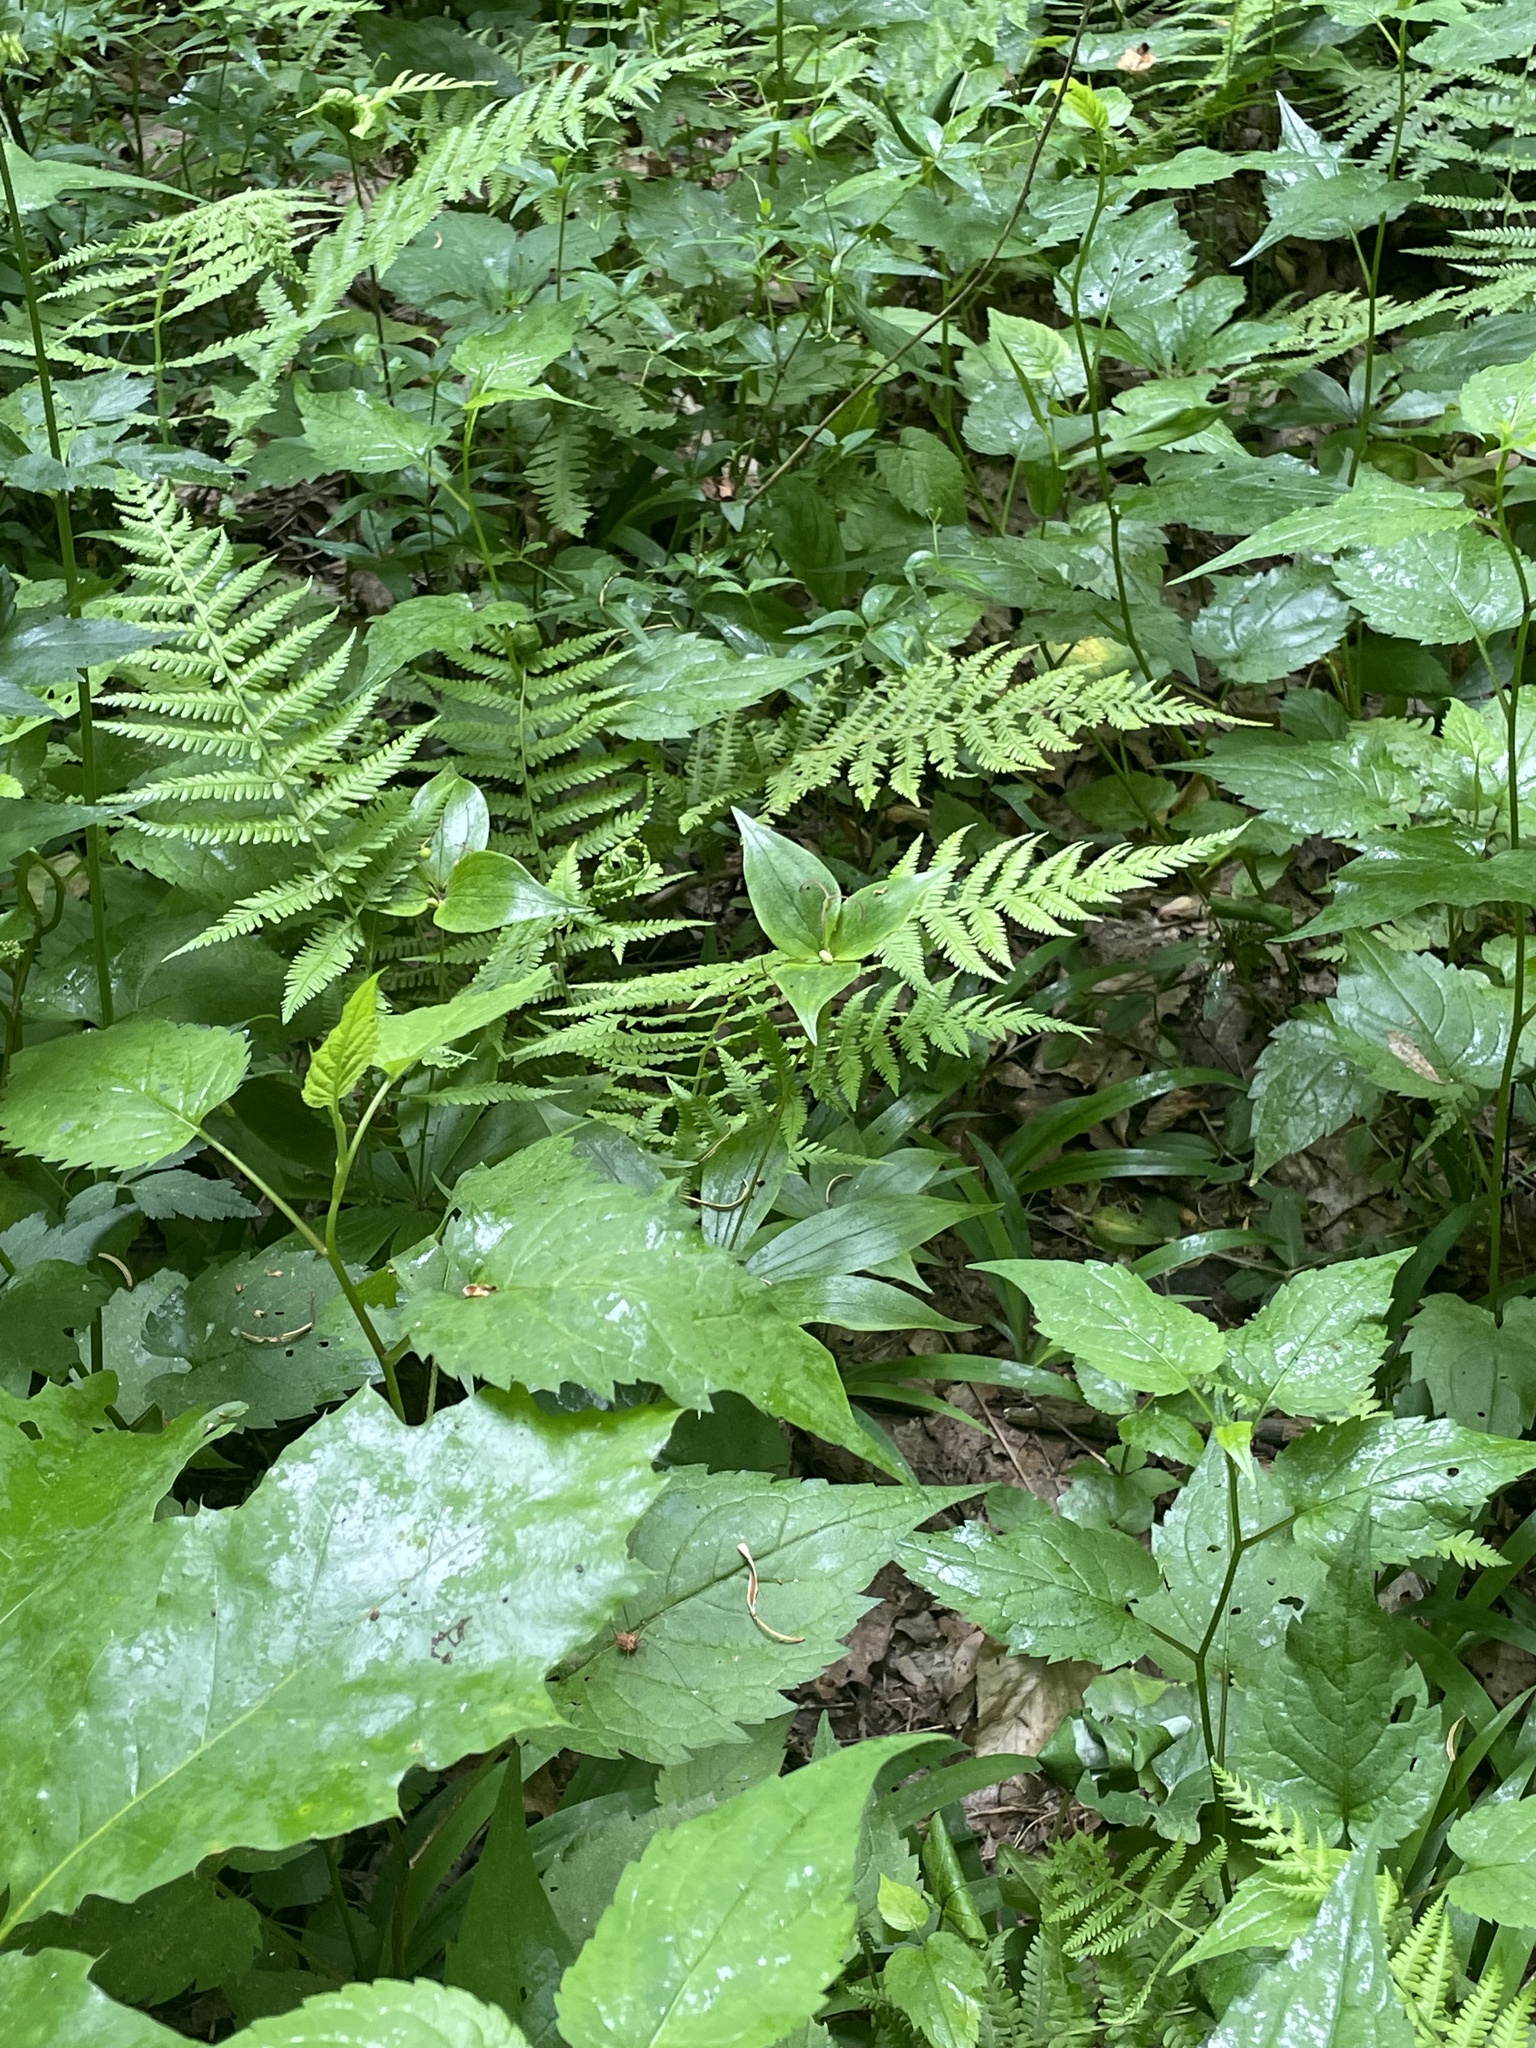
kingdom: Plantae
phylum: Tracheophyta
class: Liliopsida
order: Liliales
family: Liliaceae
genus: Medeola
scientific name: Medeola virginiana
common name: Indian cucumber-root
